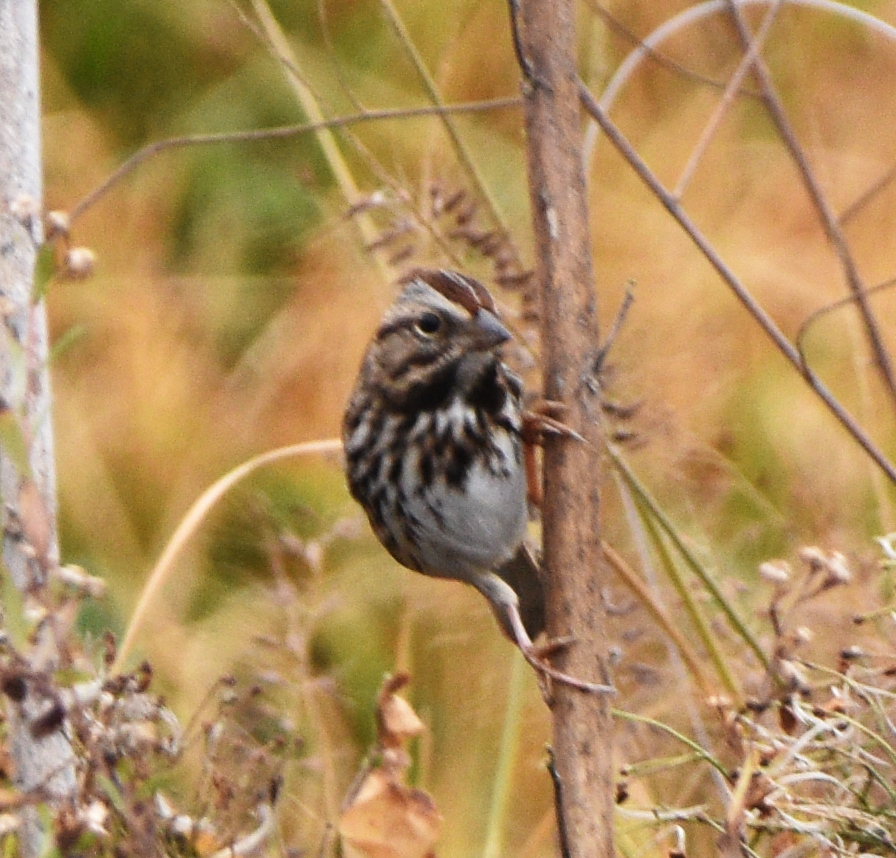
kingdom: Animalia
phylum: Chordata
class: Aves
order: Passeriformes
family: Passerellidae
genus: Melospiza
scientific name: Melospiza melodia
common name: Song sparrow
